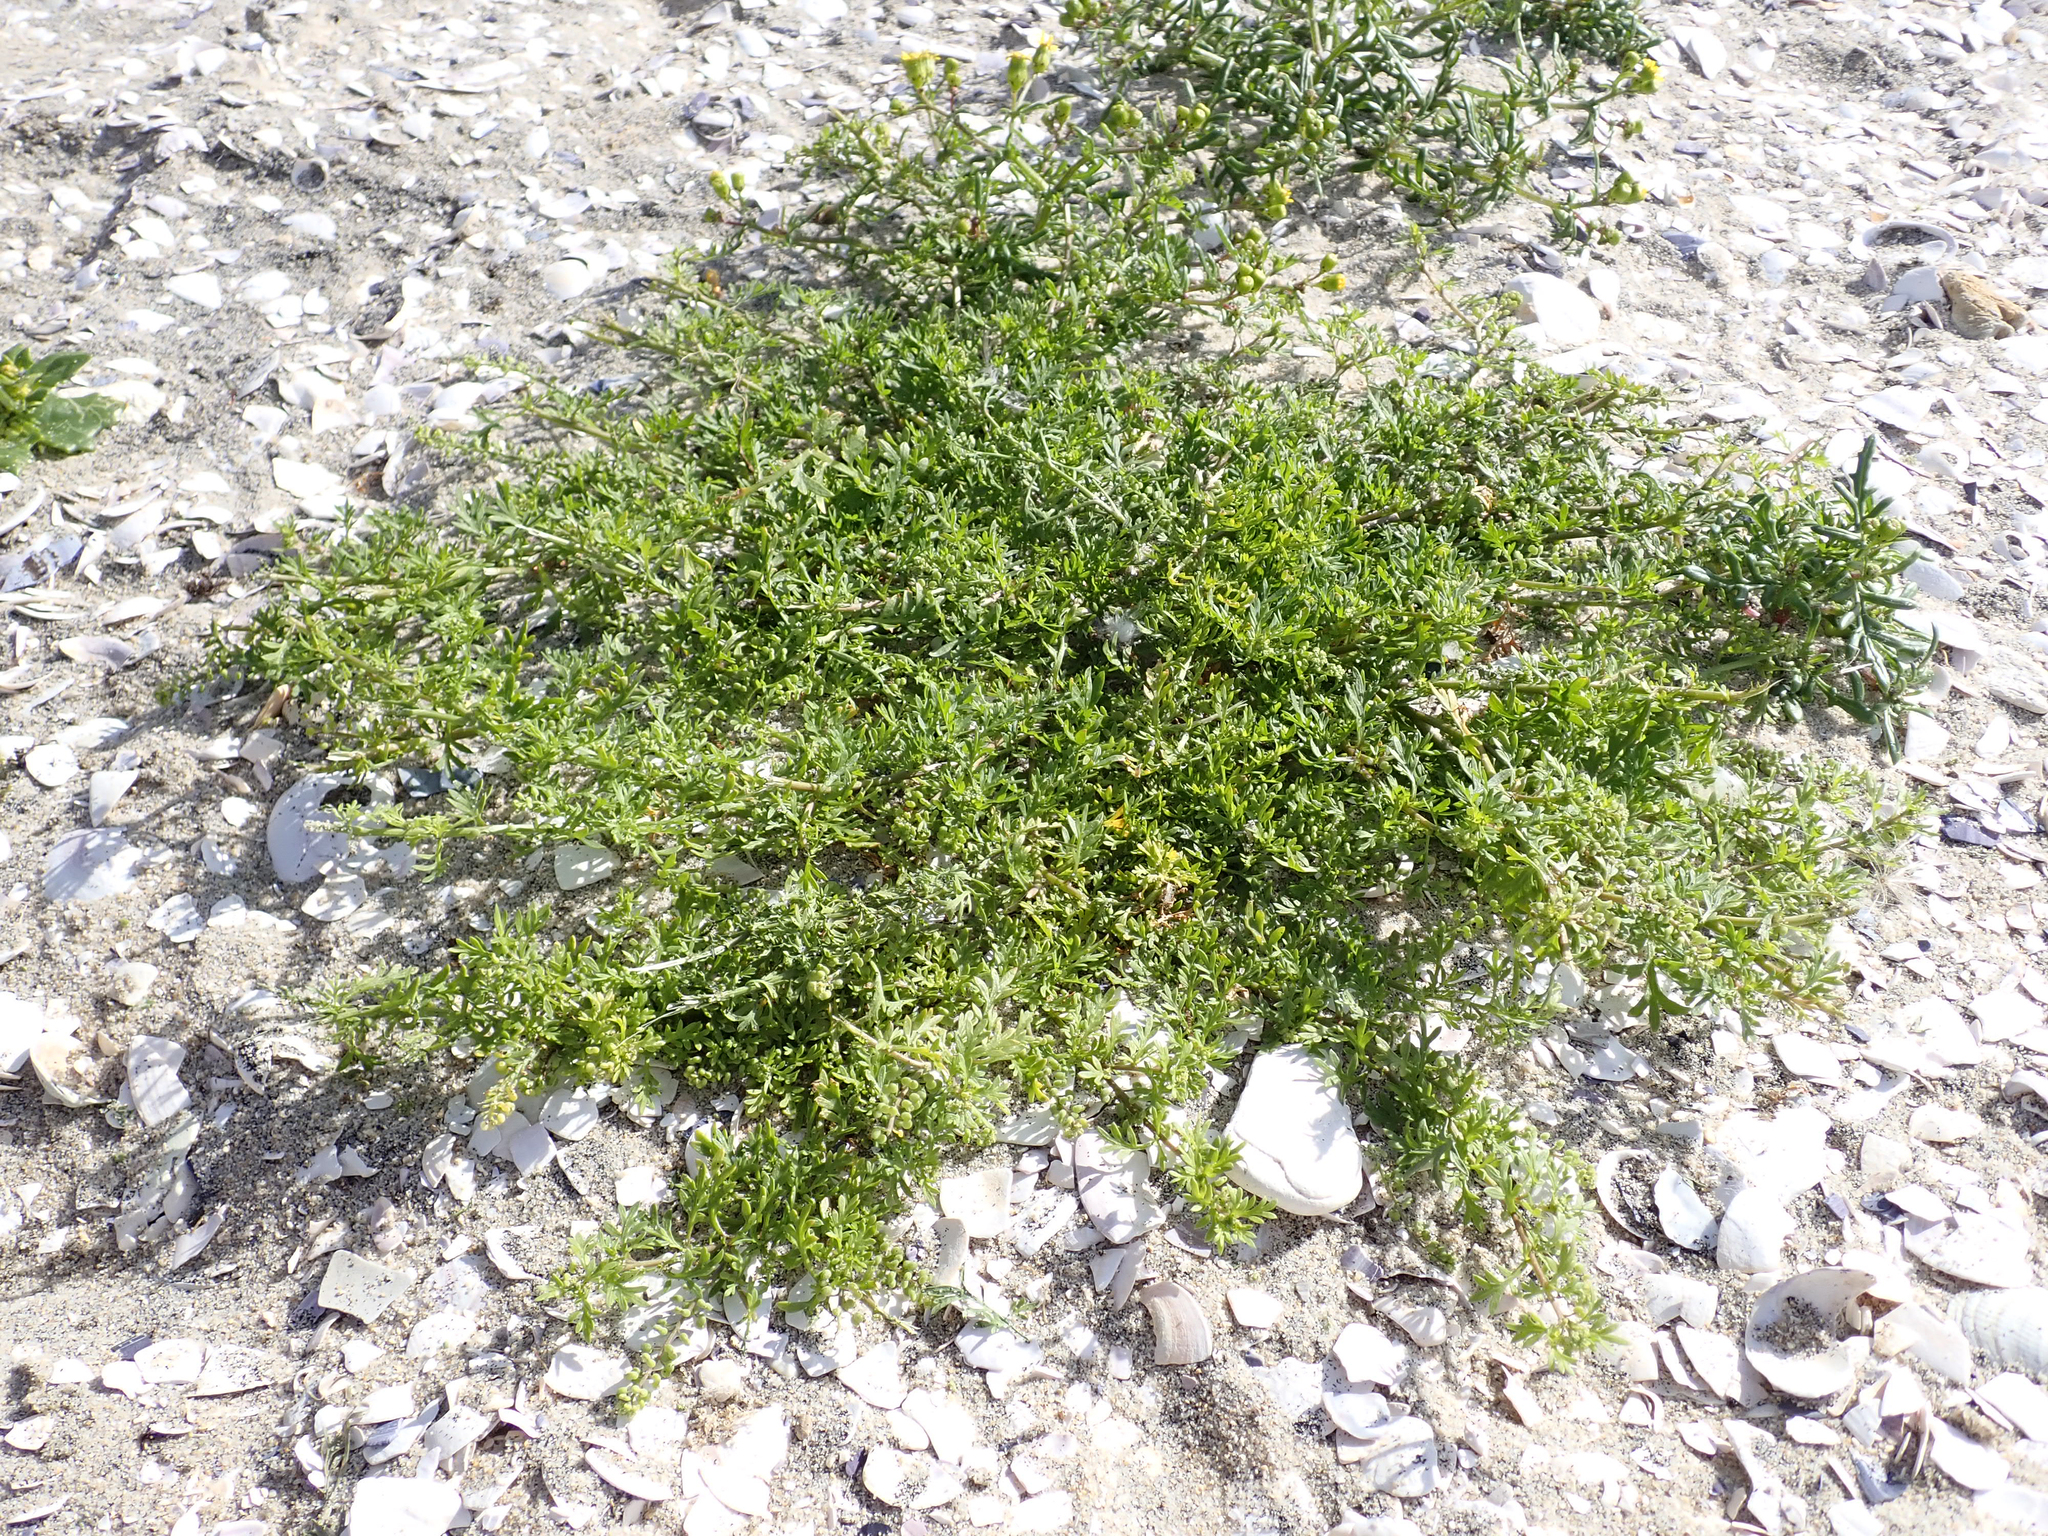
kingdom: Plantae
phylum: Tracheophyta
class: Magnoliopsida
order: Brassicales
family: Brassicaceae
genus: Lepidium
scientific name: Lepidium didymum
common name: Lesser swinecress
